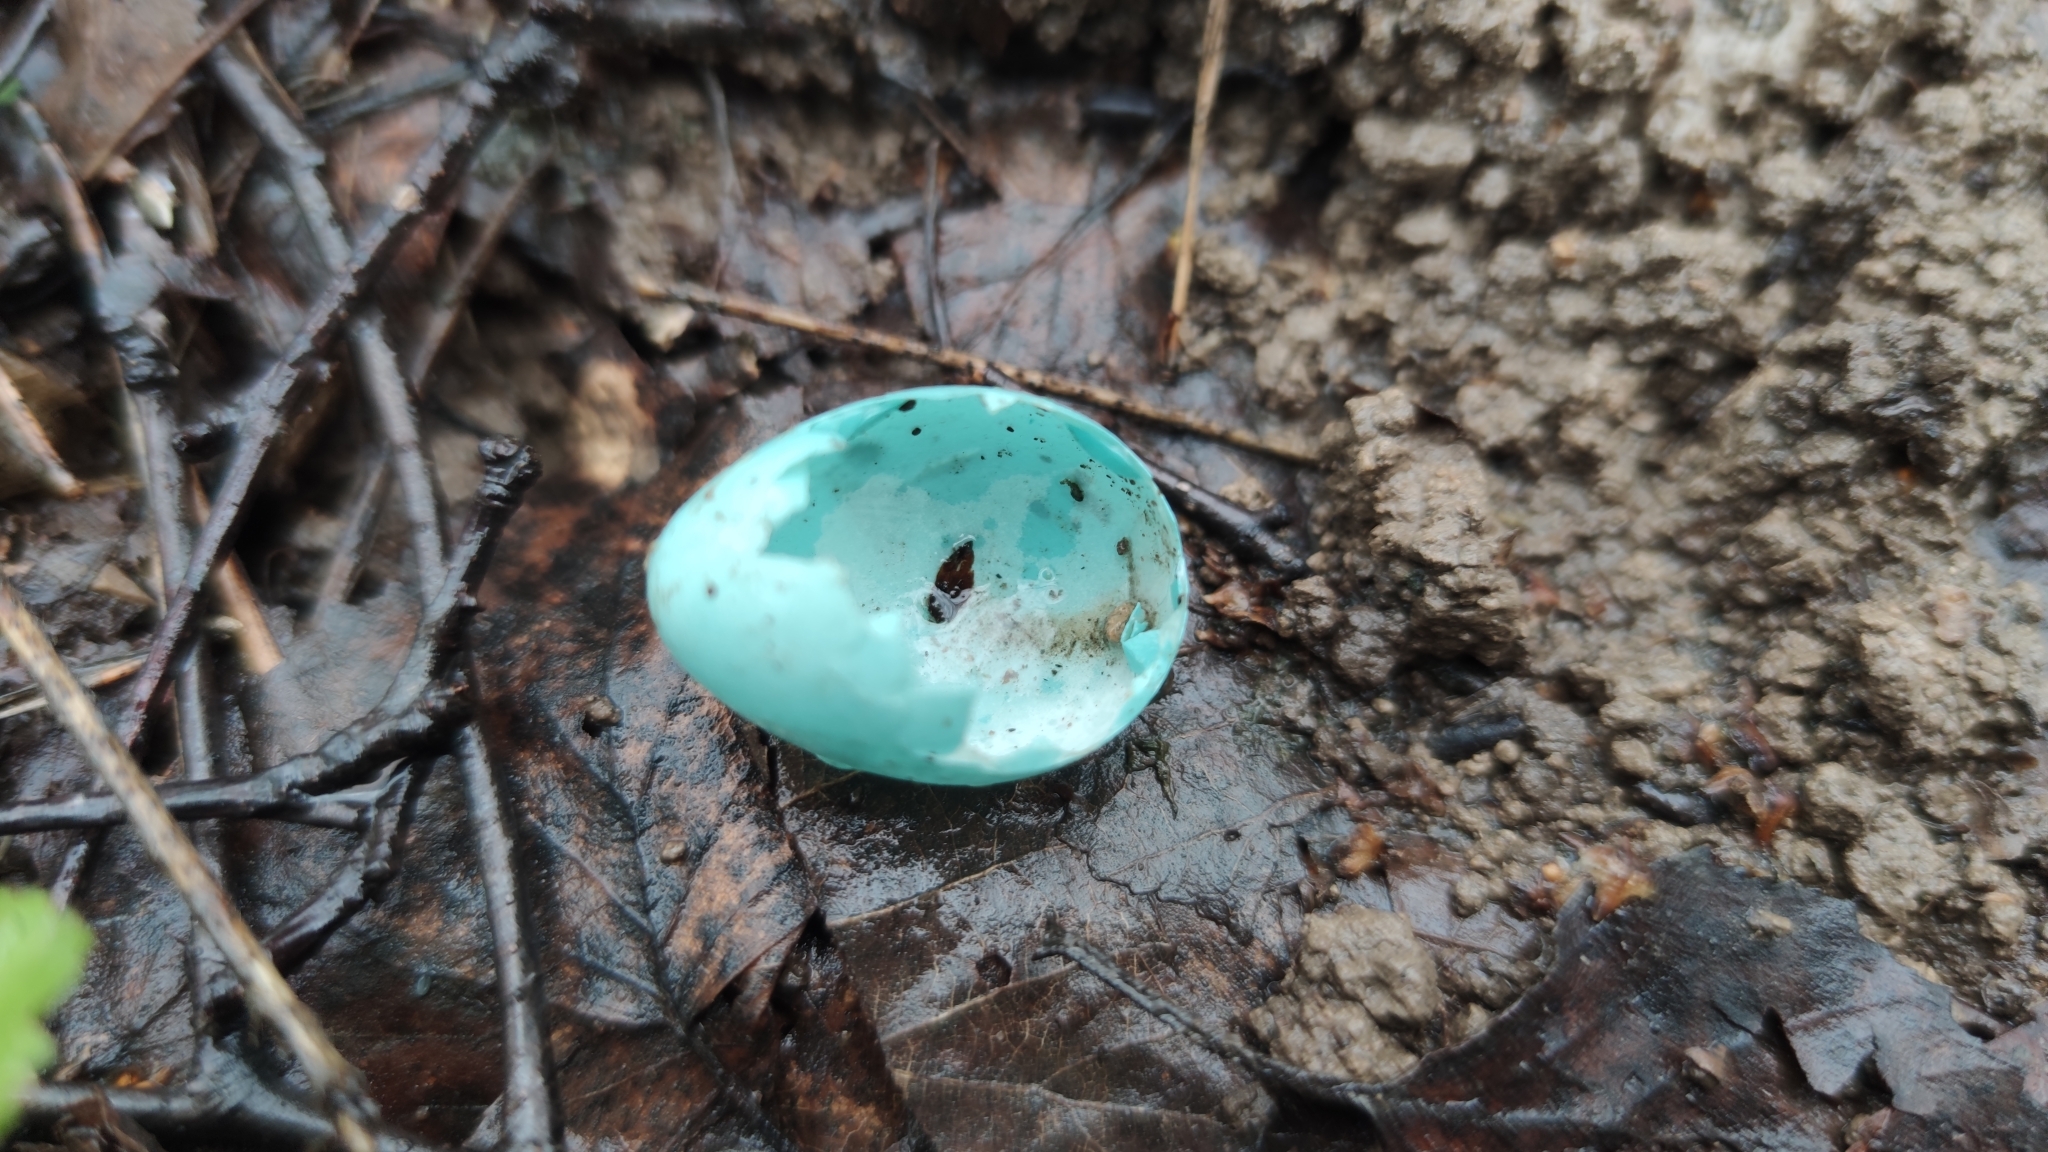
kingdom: Animalia
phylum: Chordata
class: Aves
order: Passeriformes
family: Turdidae
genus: Turdus
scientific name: Turdus philomelos
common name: Song thrush
